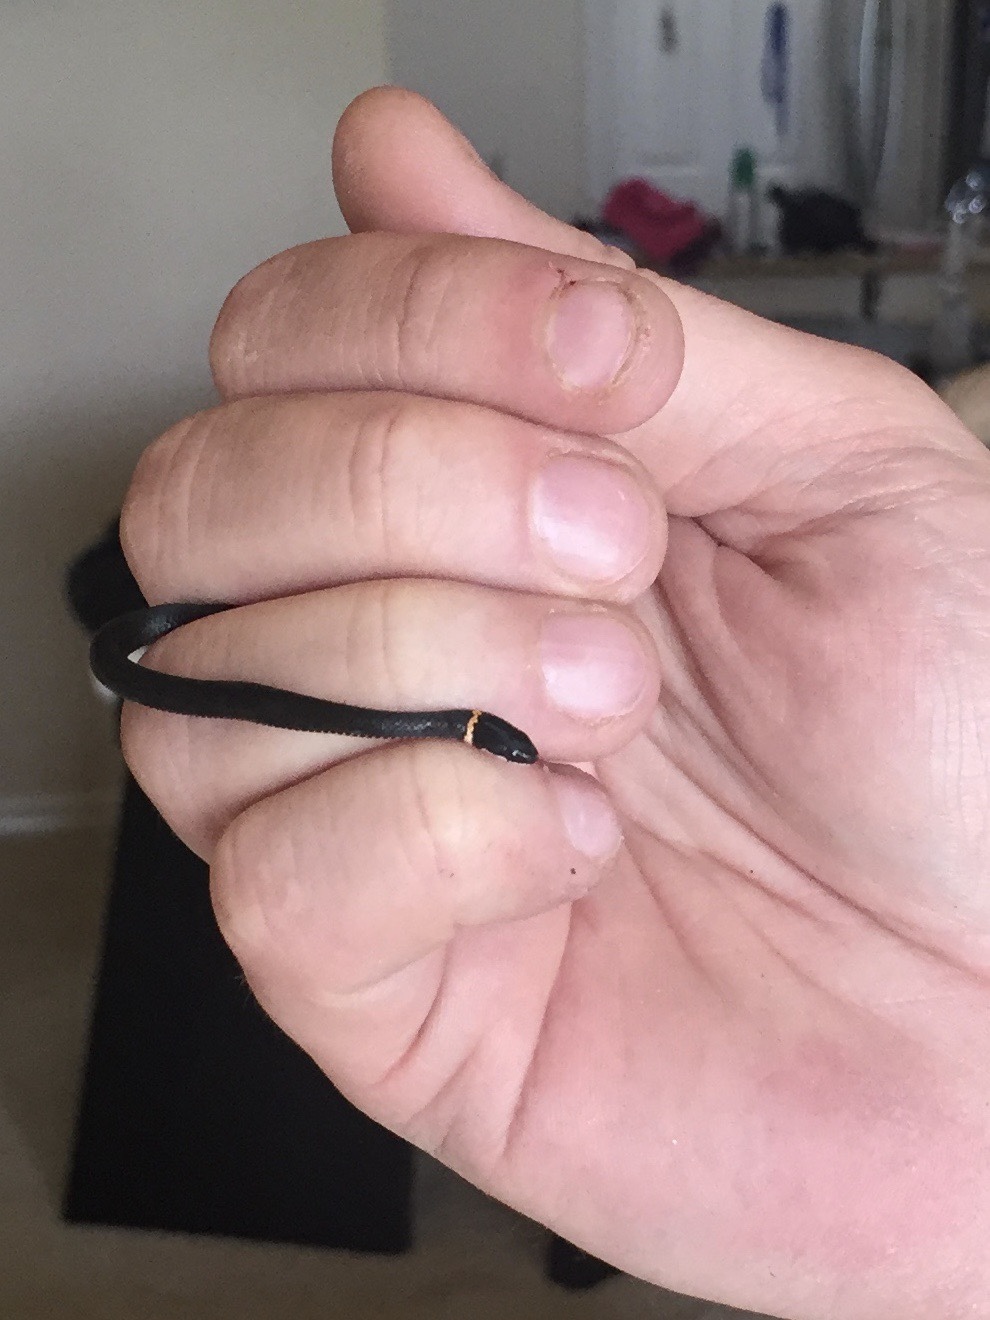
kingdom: Animalia
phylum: Chordata
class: Squamata
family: Colubridae
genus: Diadophis
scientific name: Diadophis punctatus
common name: Ringneck snake
